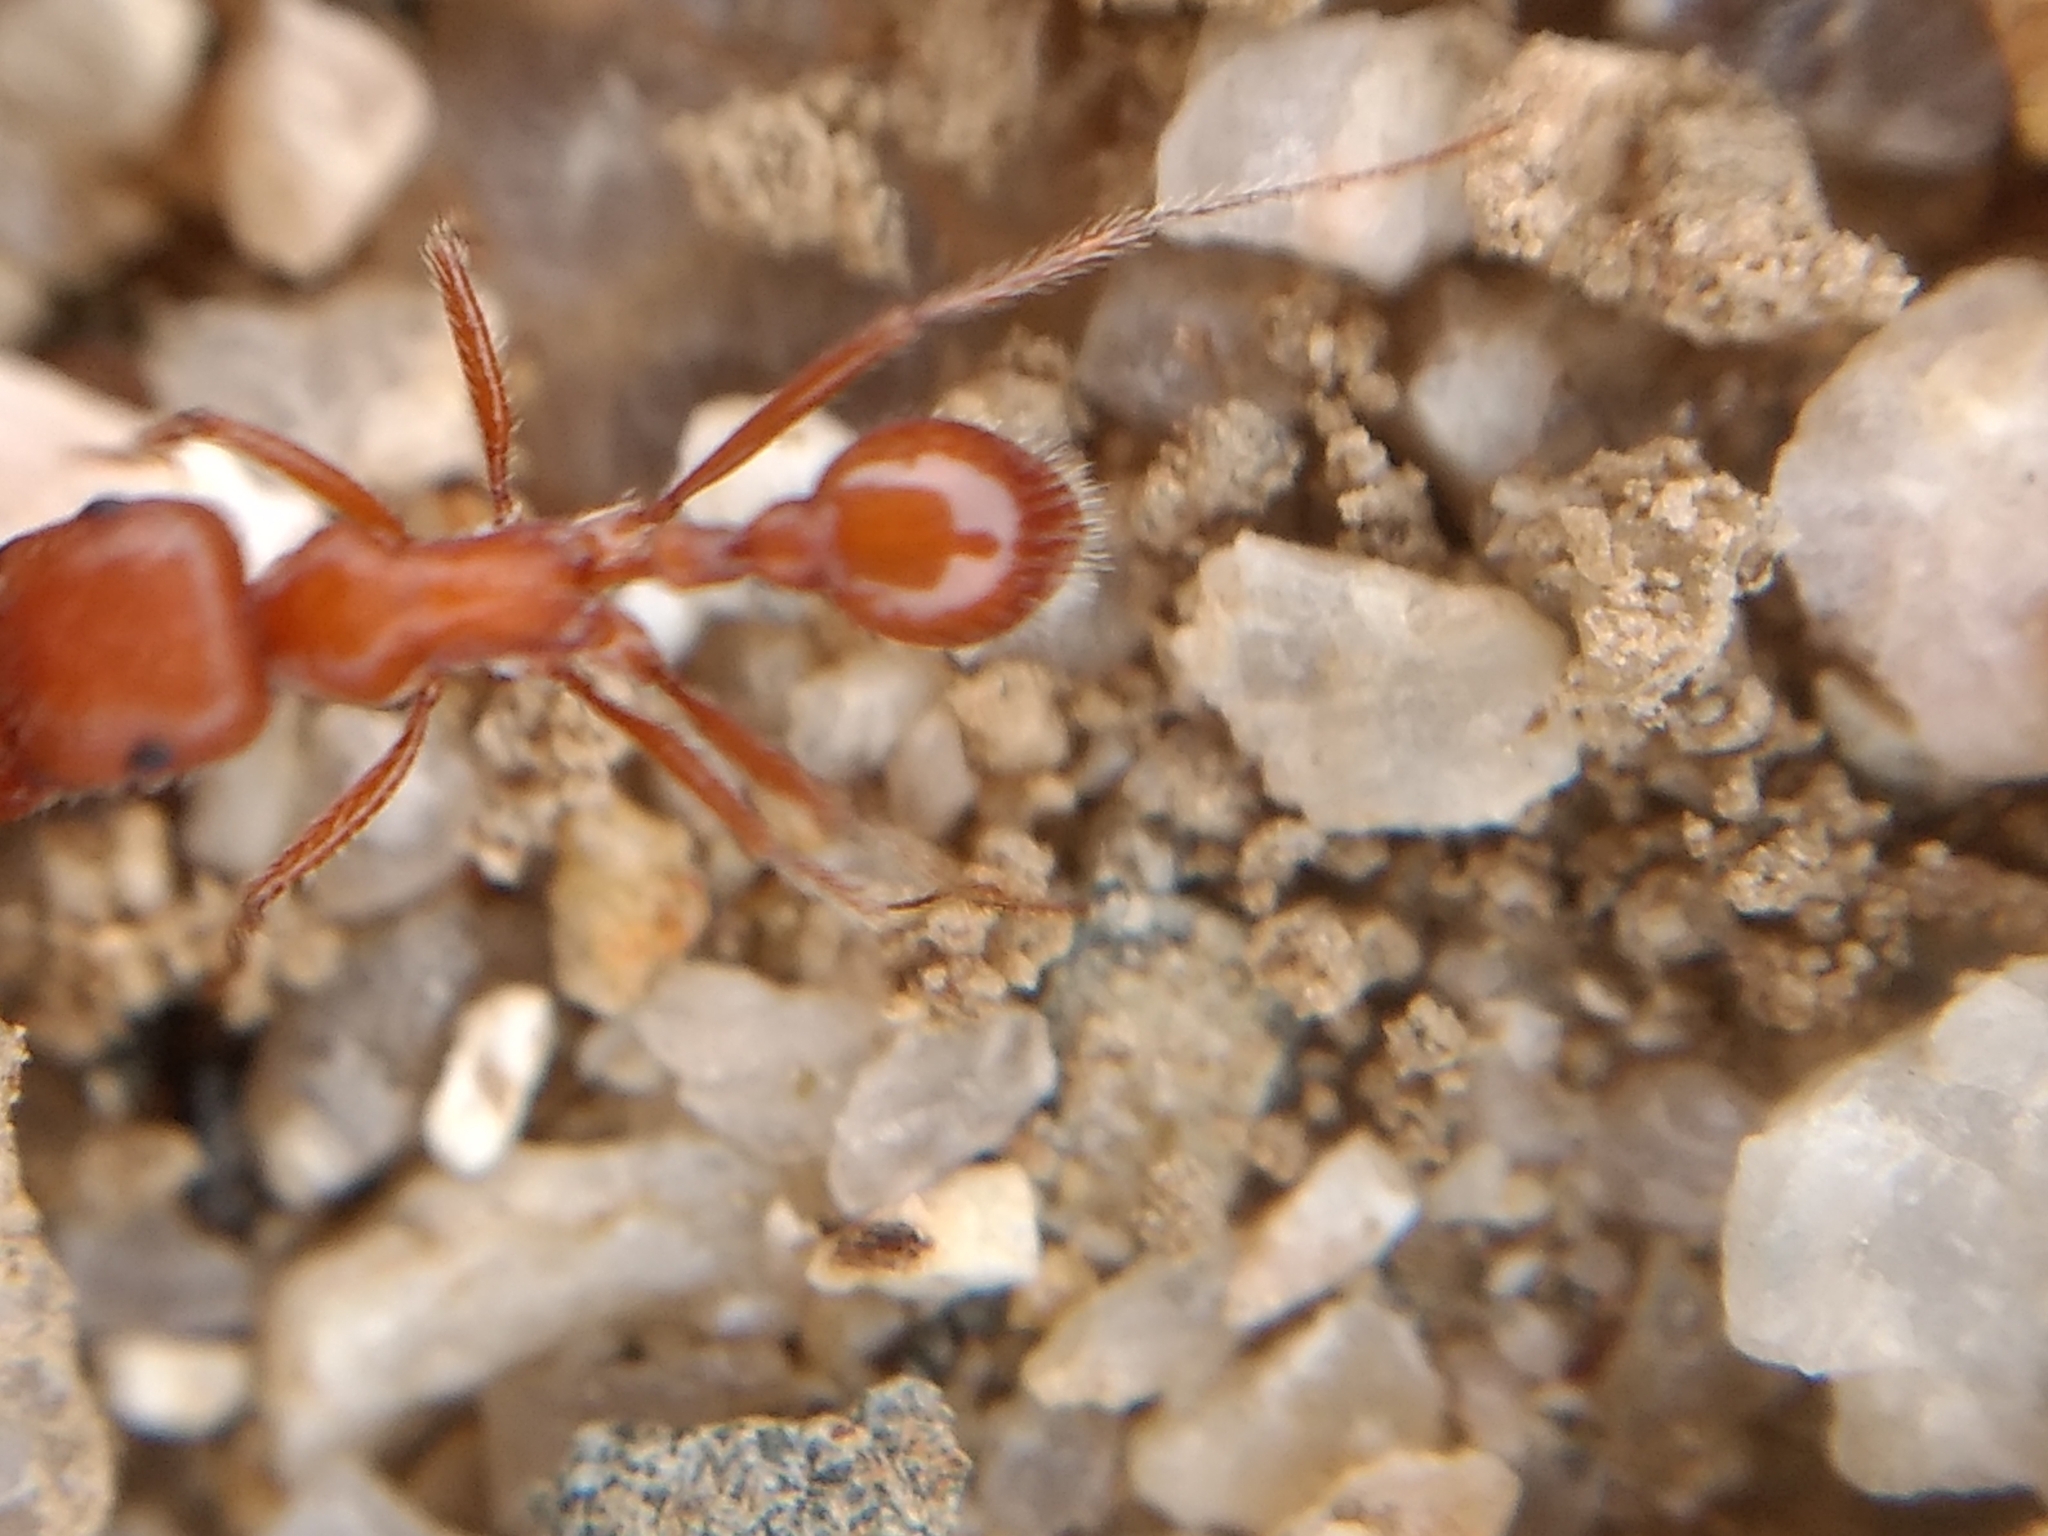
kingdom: Animalia
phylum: Arthropoda
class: Insecta
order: Hymenoptera
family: Formicidae
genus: Pogonomyrmex
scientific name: Pogonomyrmex californicus
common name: California harvester ant
